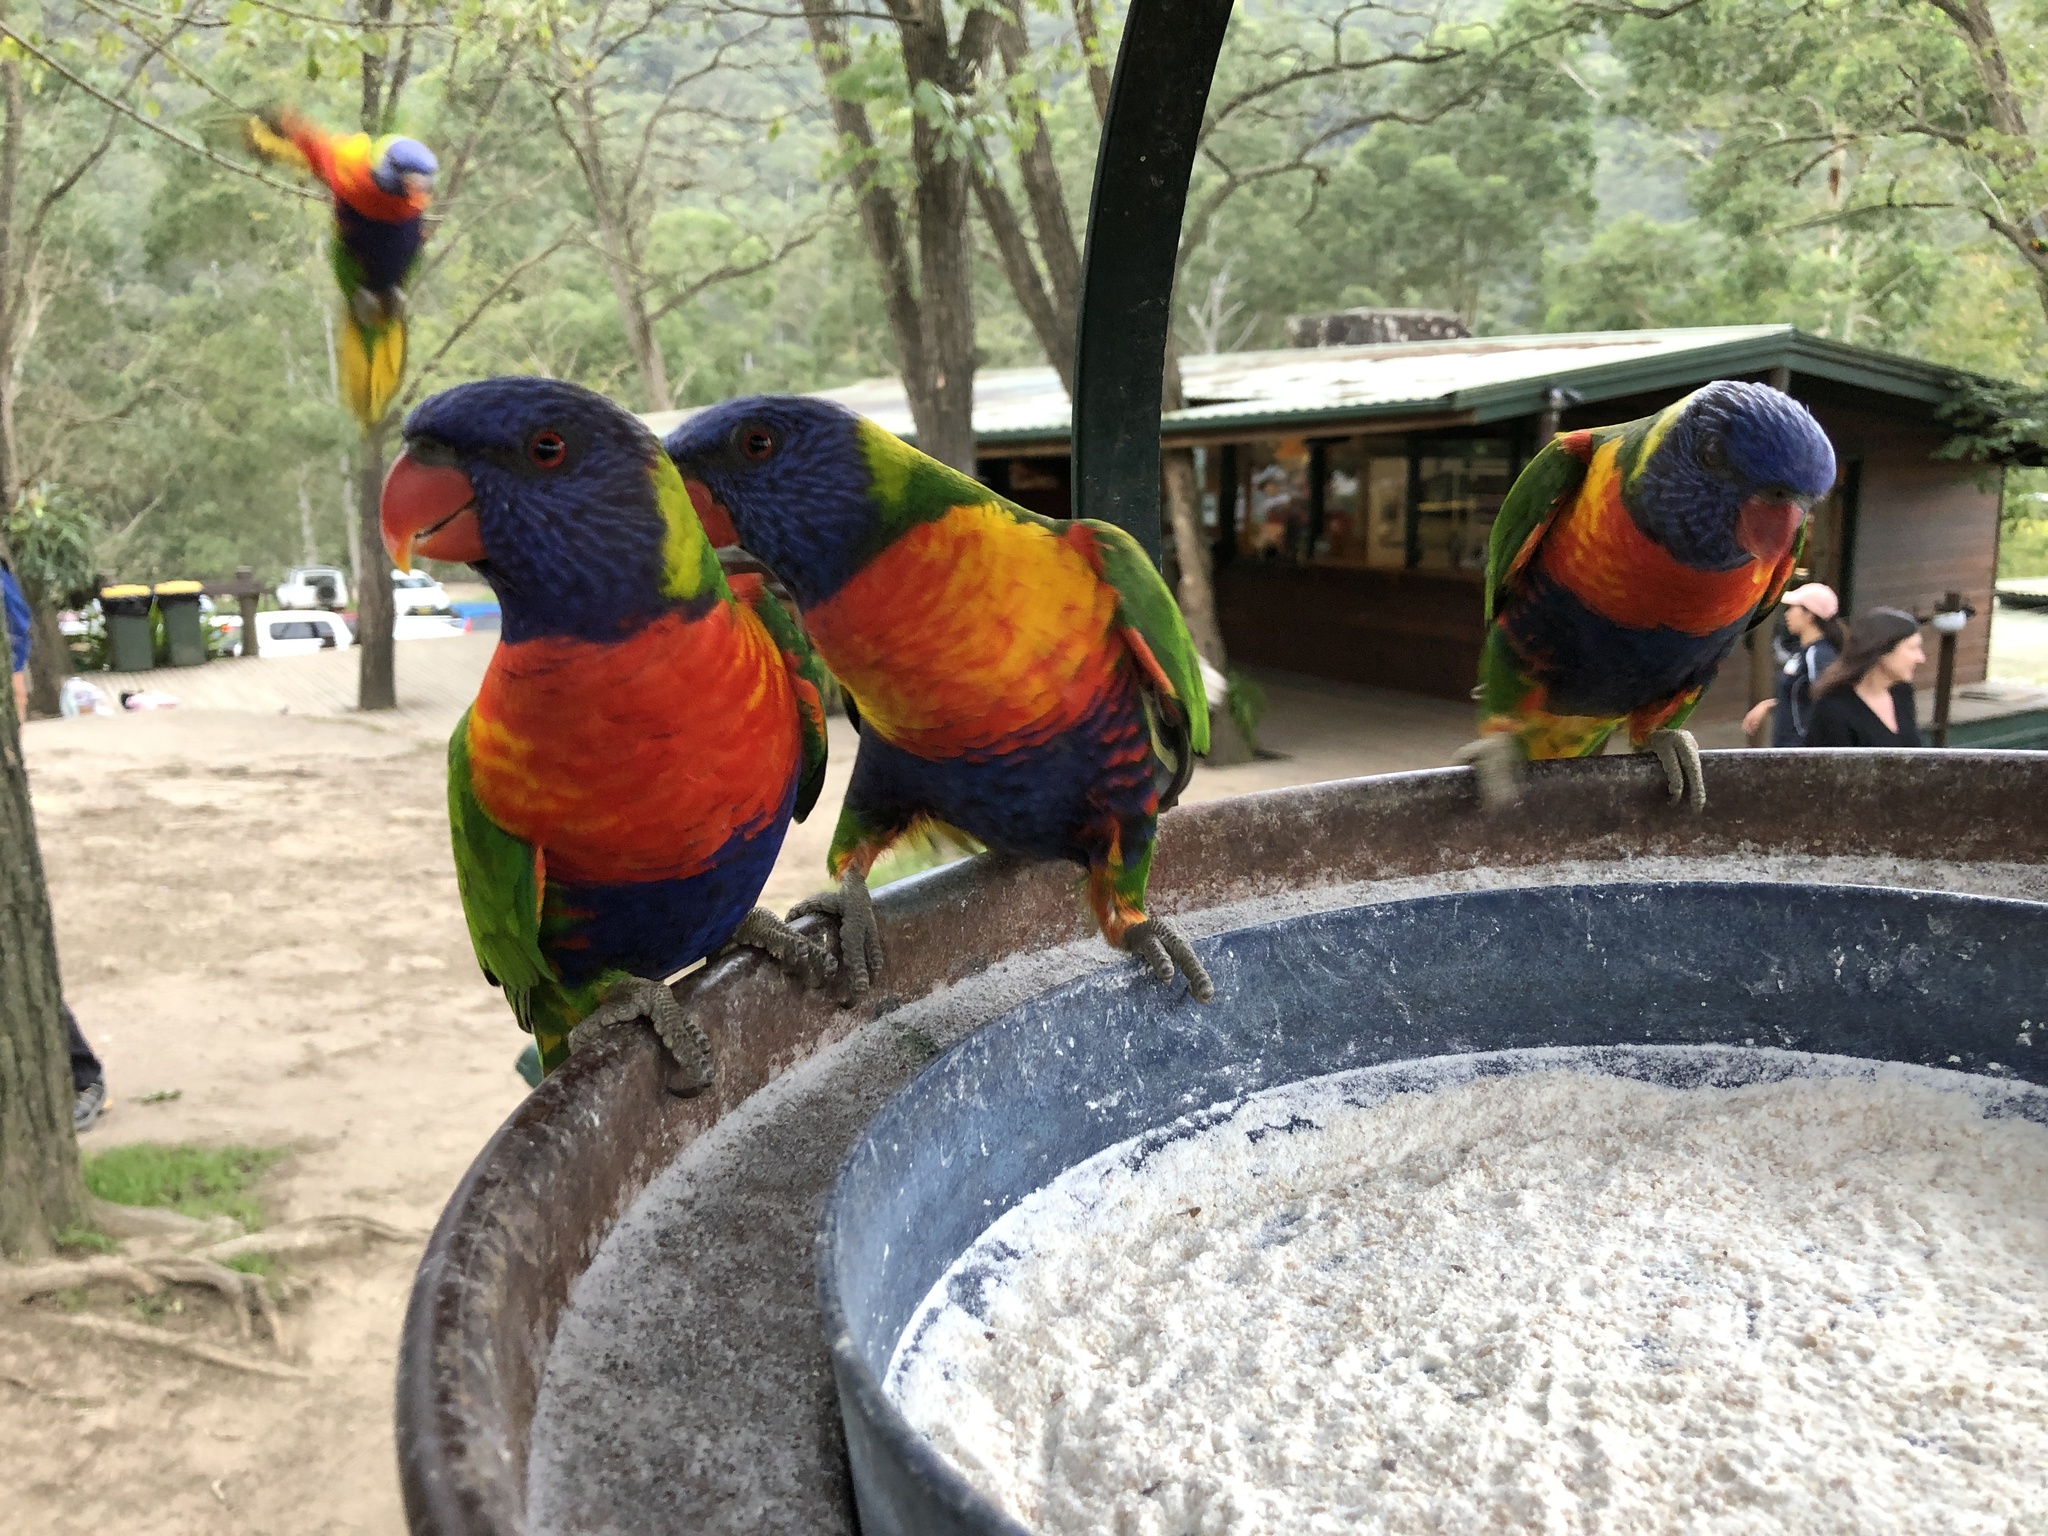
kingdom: Animalia
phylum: Chordata
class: Aves
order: Psittaciformes
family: Psittacidae
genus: Trichoglossus
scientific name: Trichoglossus haematodus
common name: Coconut lorikeet
